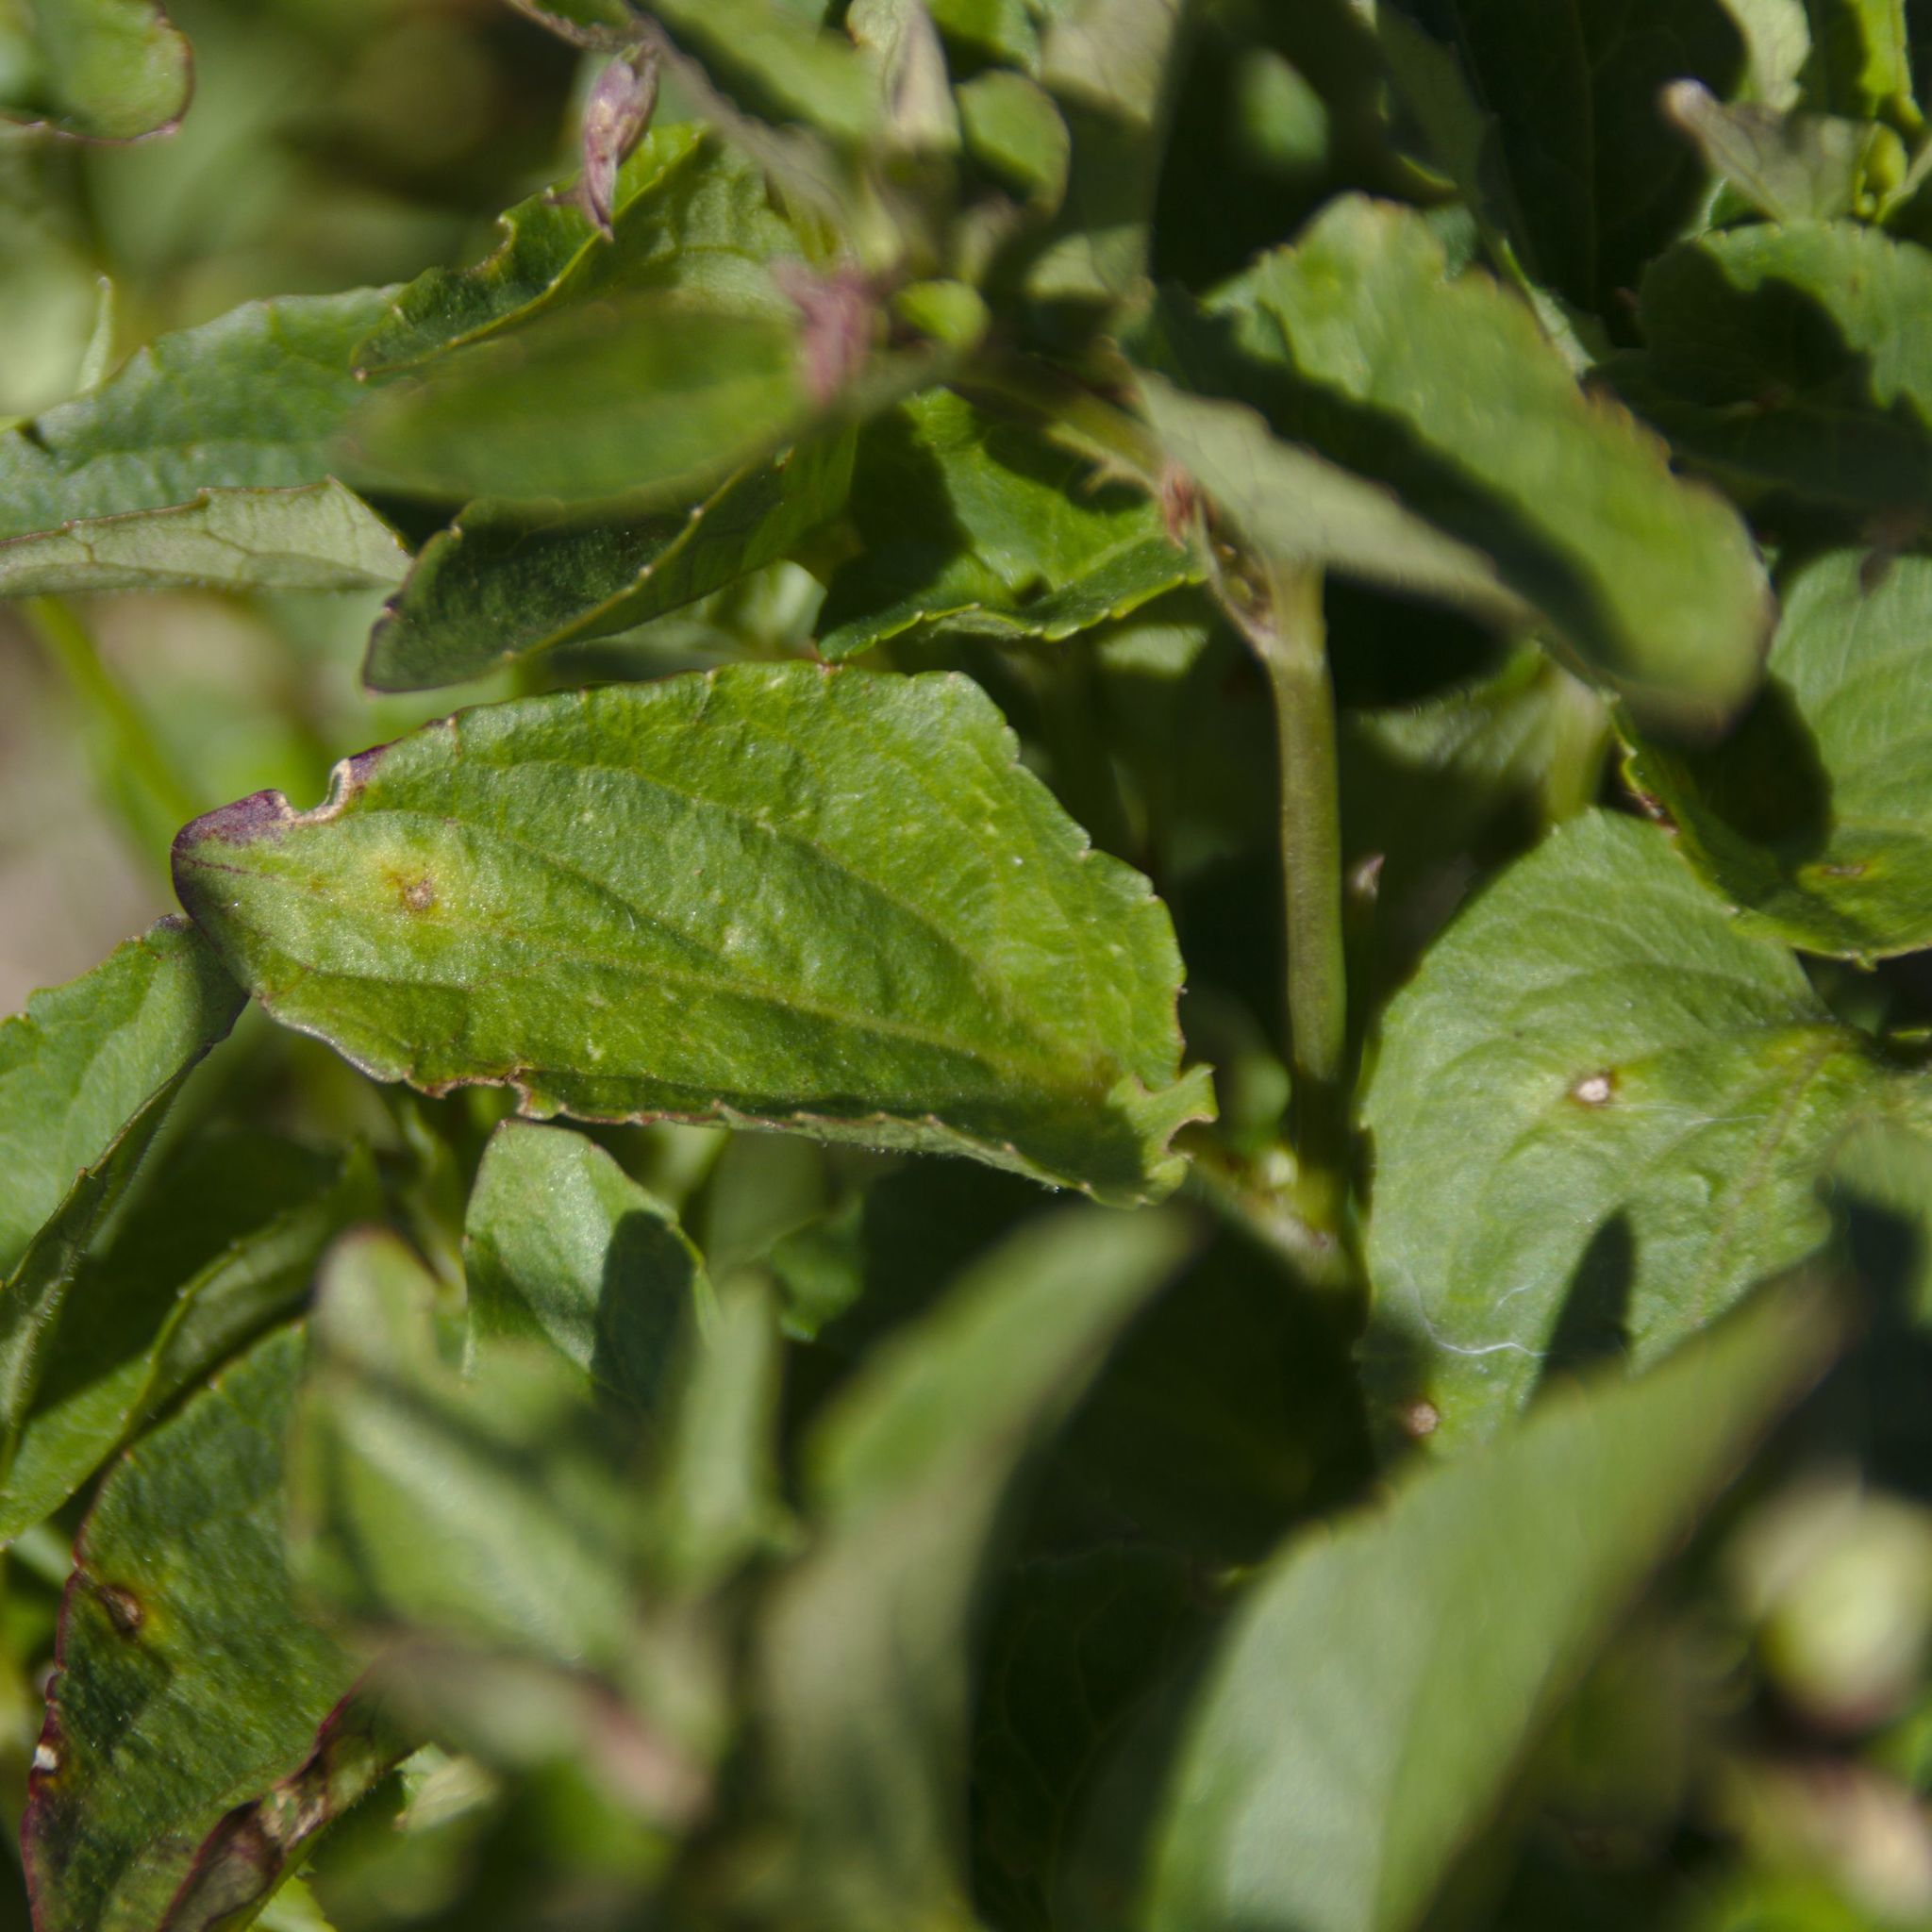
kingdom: Plantae
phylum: Tracheophyta
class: Magnoliopsida
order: Malpighiales
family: Violaceae
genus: Viola
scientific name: Viola canina
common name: Heath dog-violet
